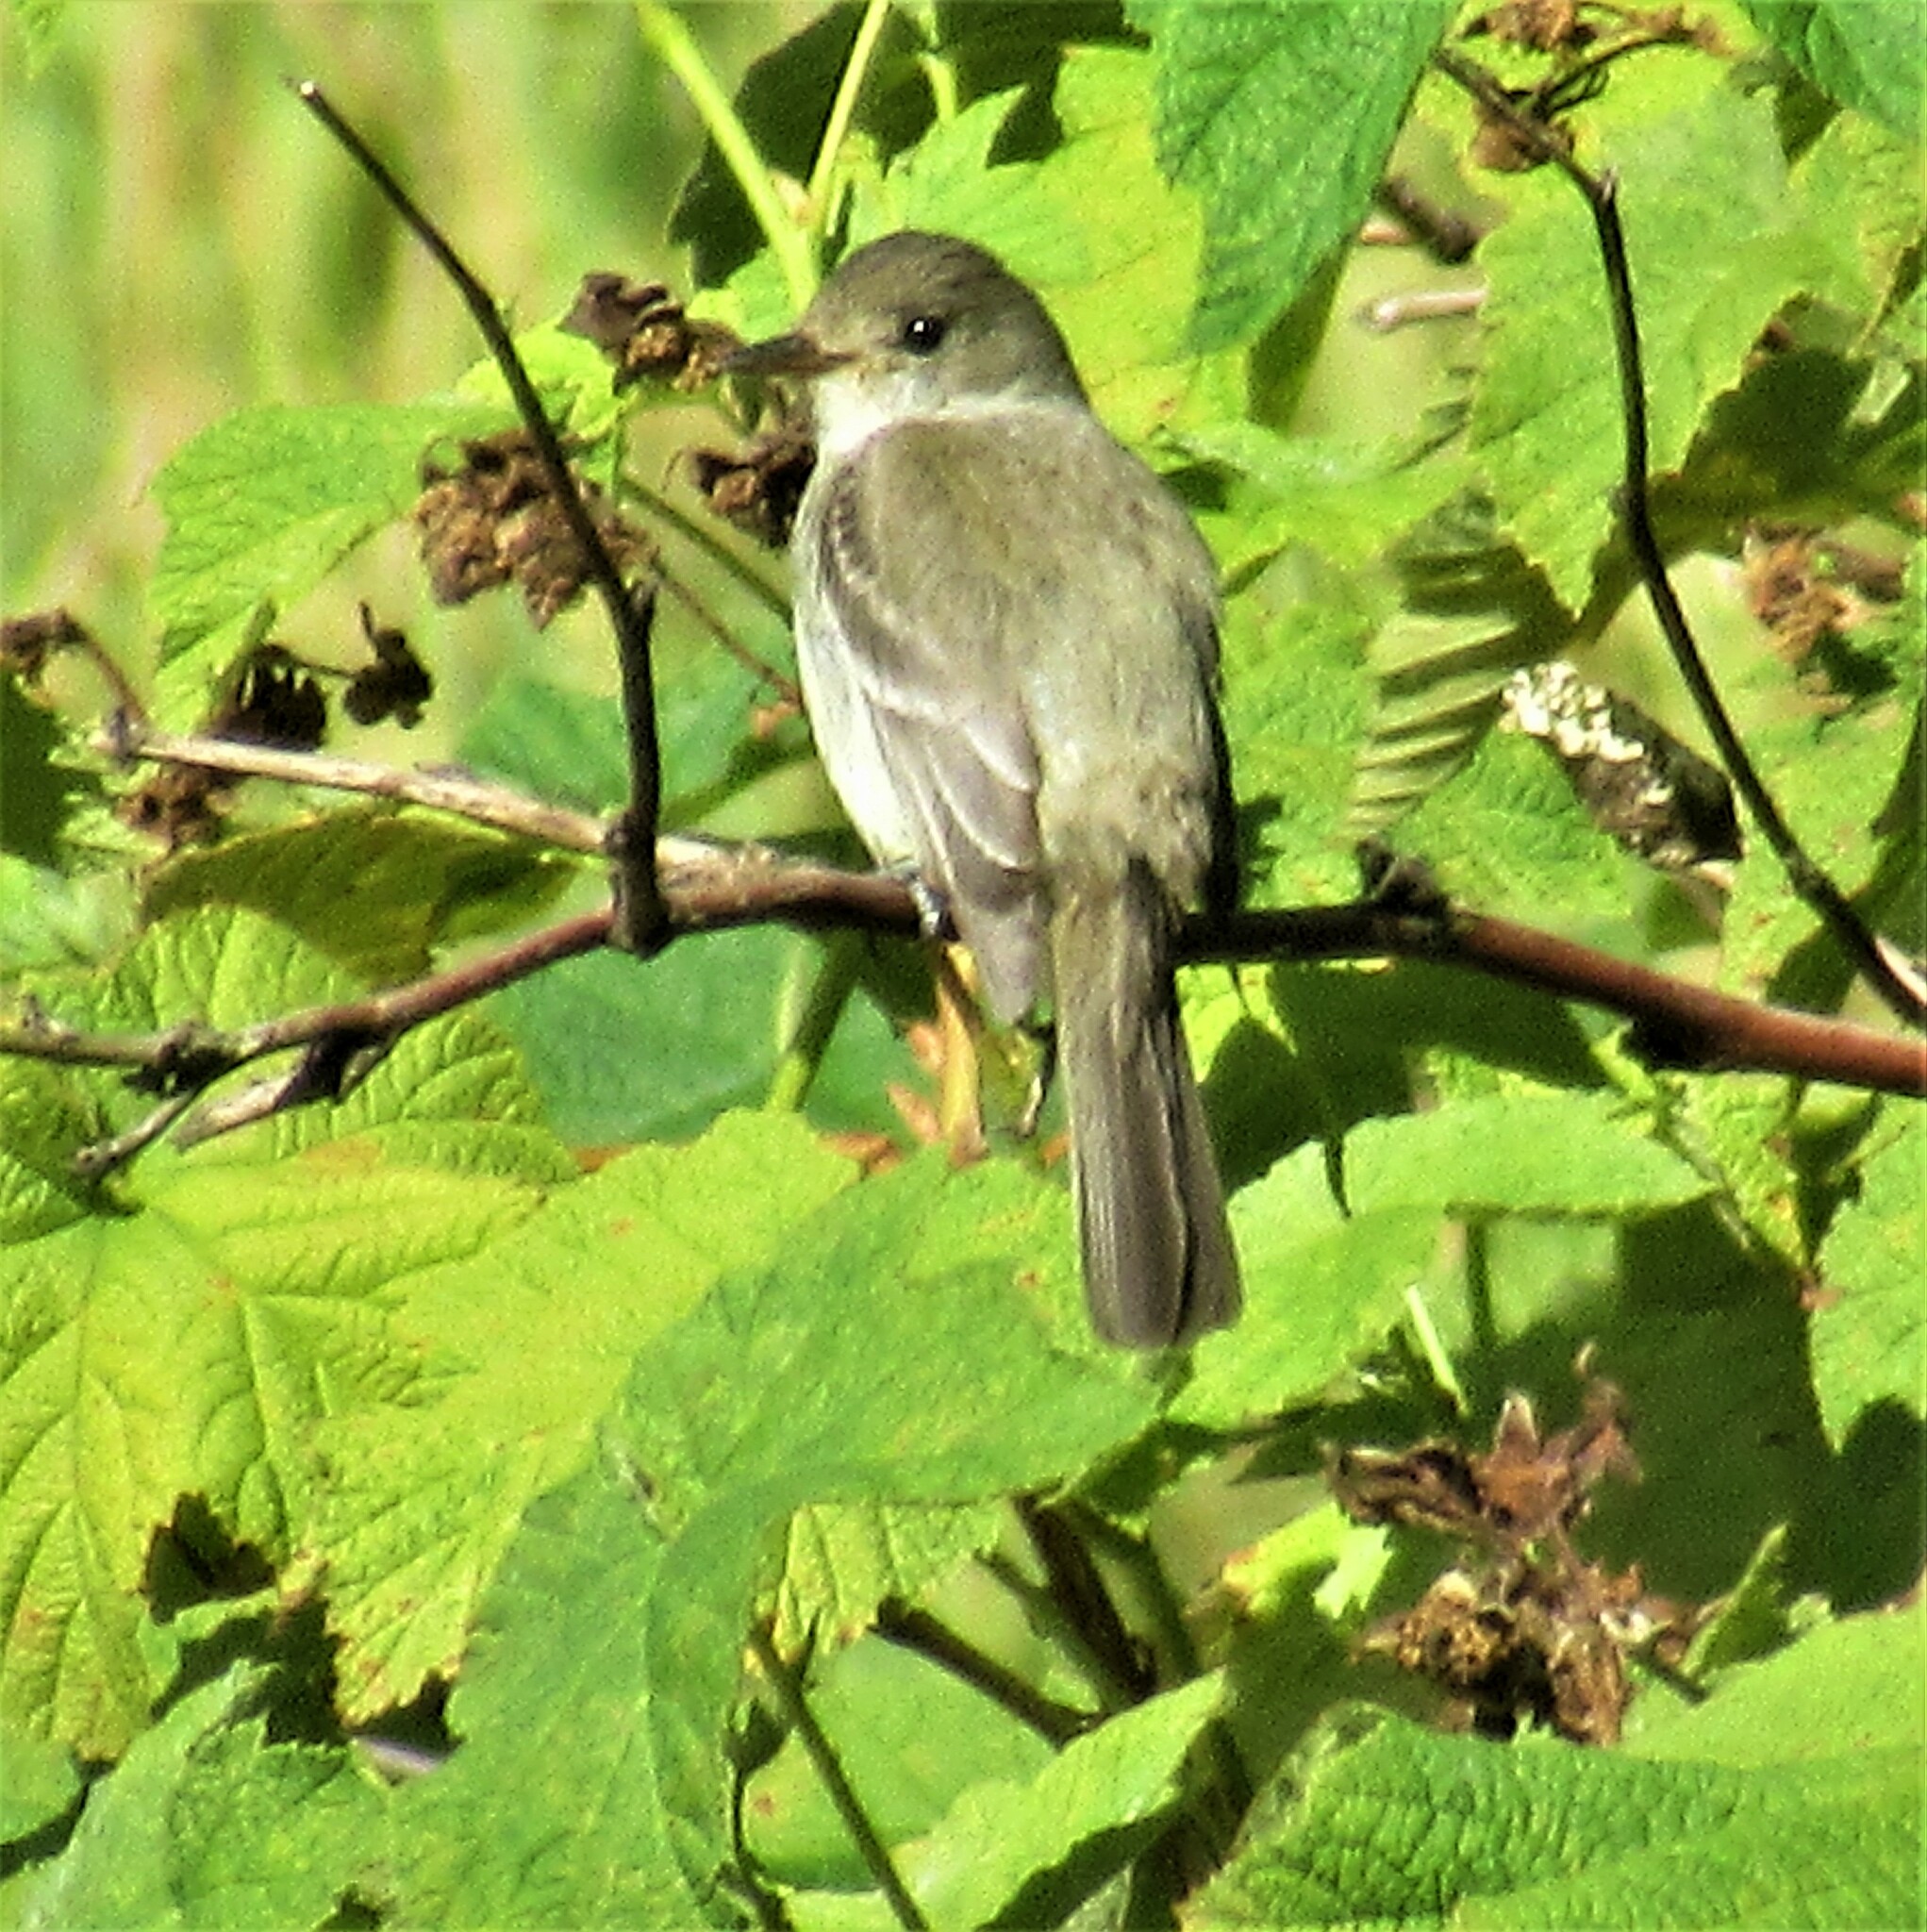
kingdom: Animalia
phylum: Chordata
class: Aves
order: Passeriformes
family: Tyrannidae
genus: Empidonax
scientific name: Empidonax traillii
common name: Willow flycatcher
